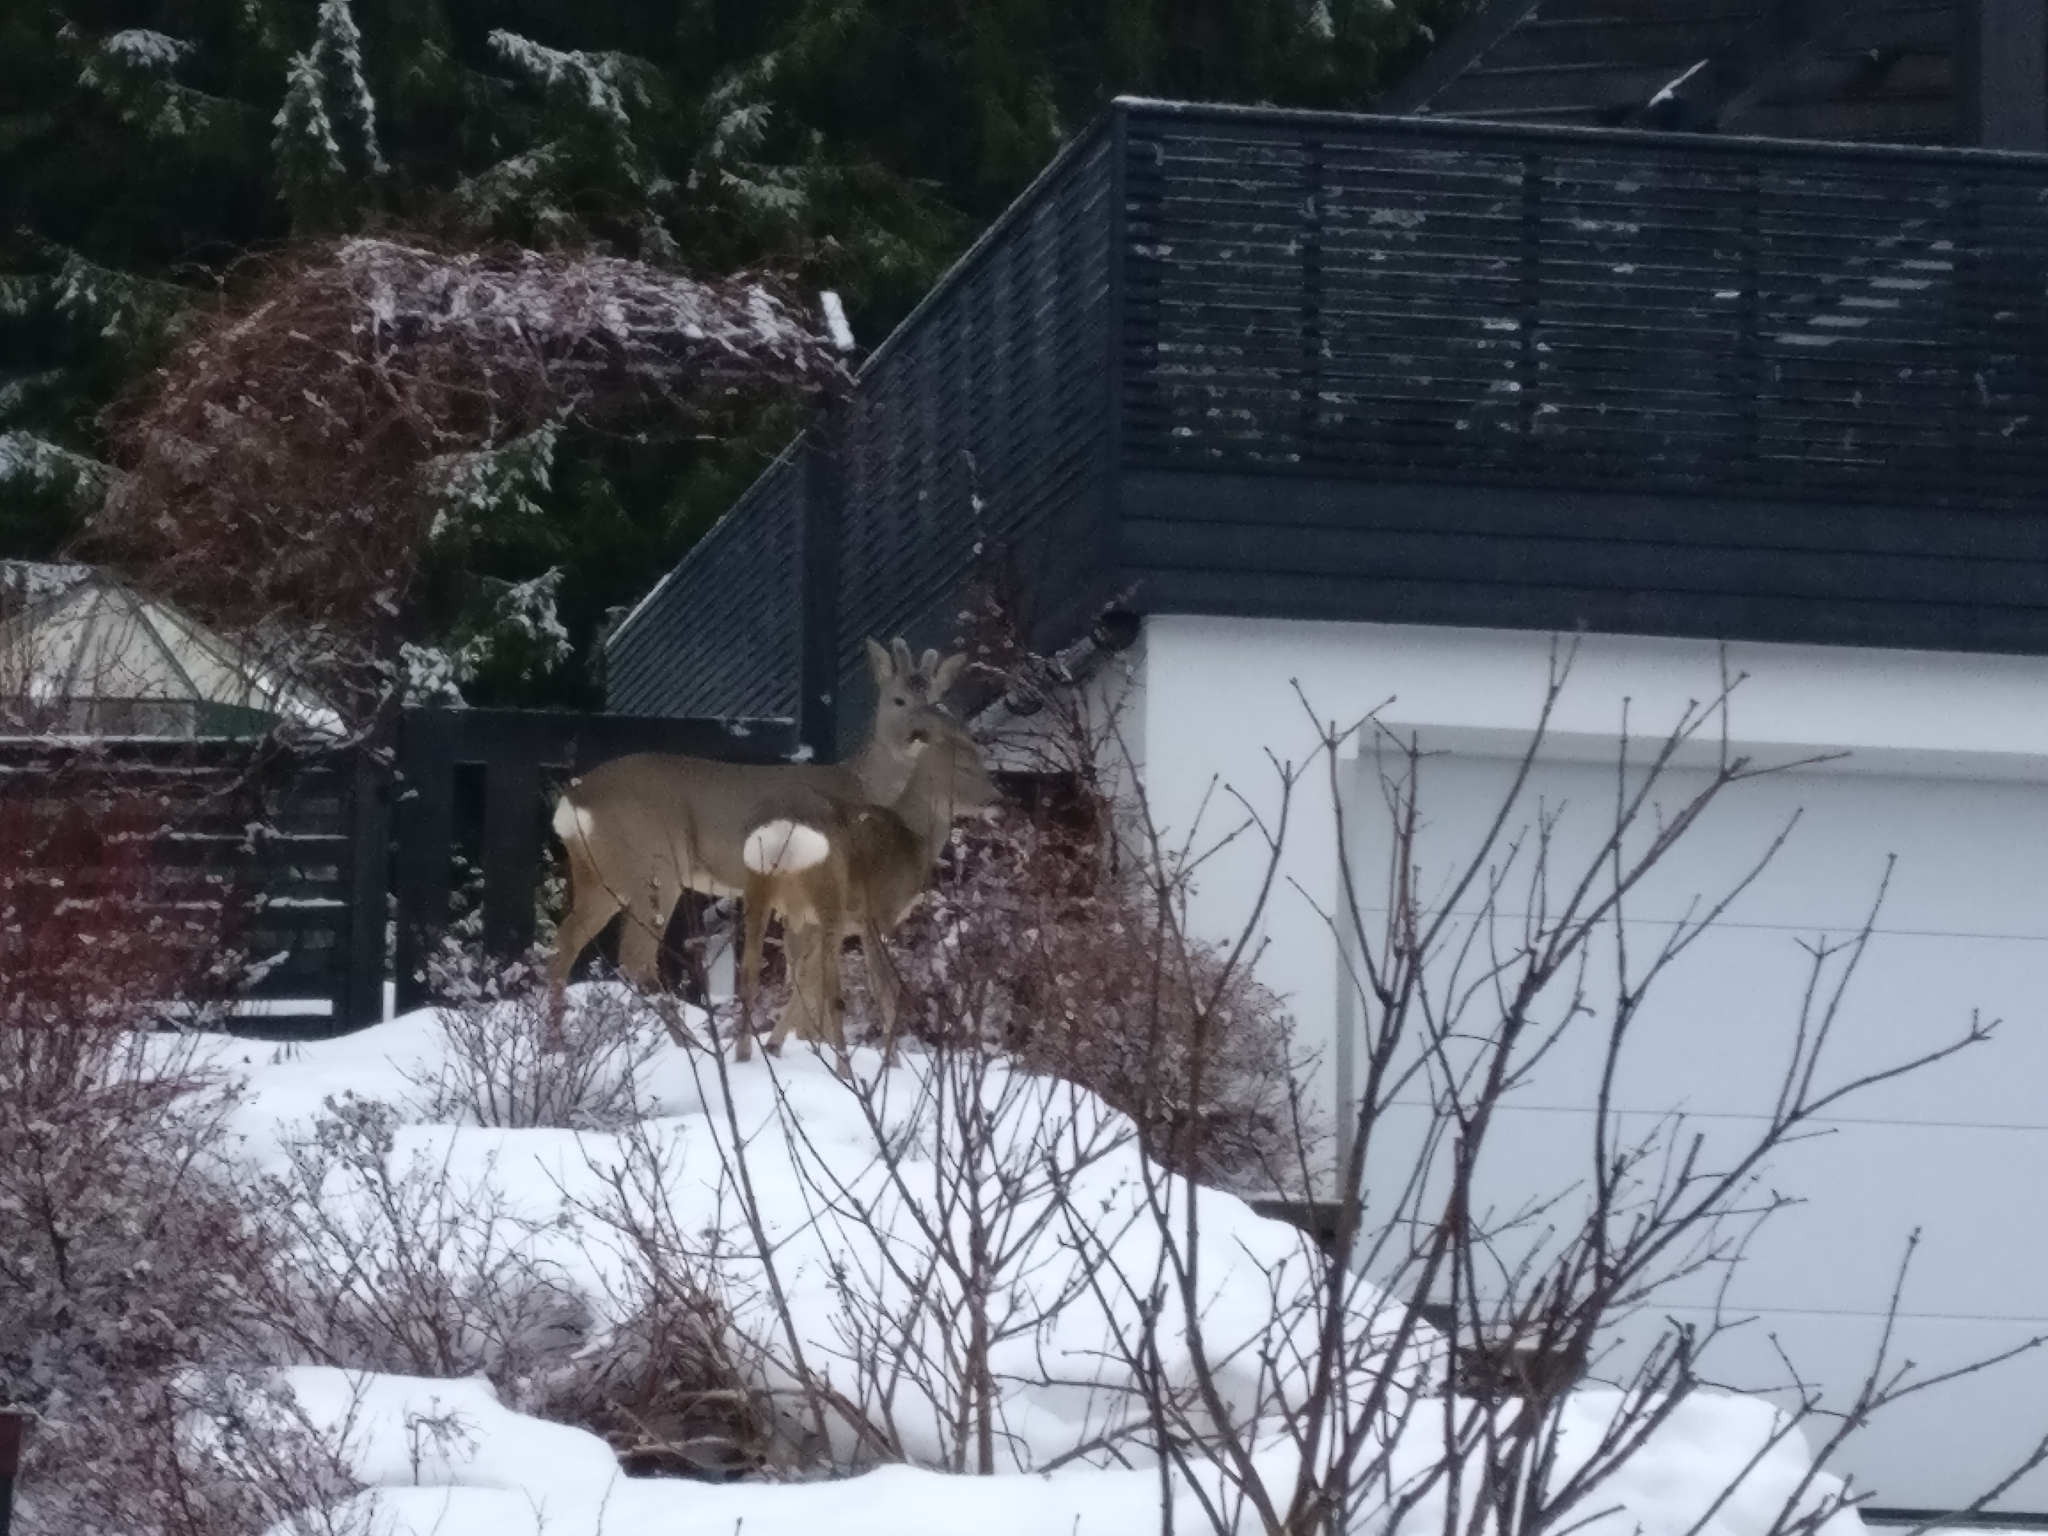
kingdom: Animalia
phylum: Chordata
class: Mammalia
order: Artiodactyla
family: Cervidae
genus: Capreolus
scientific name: Capreolus capreolus
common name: Western roe deer
